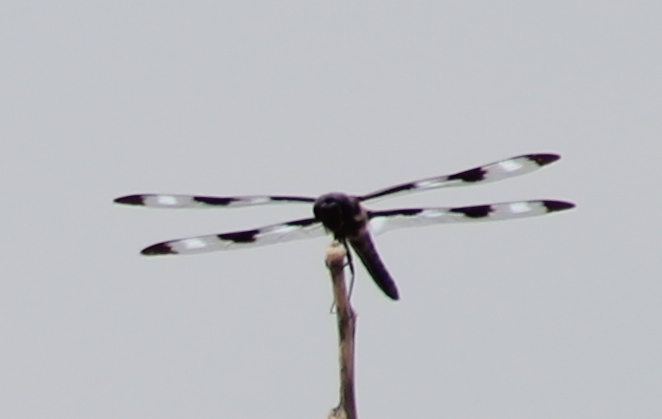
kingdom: Animalia
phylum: Arthropoda
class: Insecta
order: Odonata
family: Libellulidae
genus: Libellula
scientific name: Libellula pulchella
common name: Twelve-spotted skimmer
